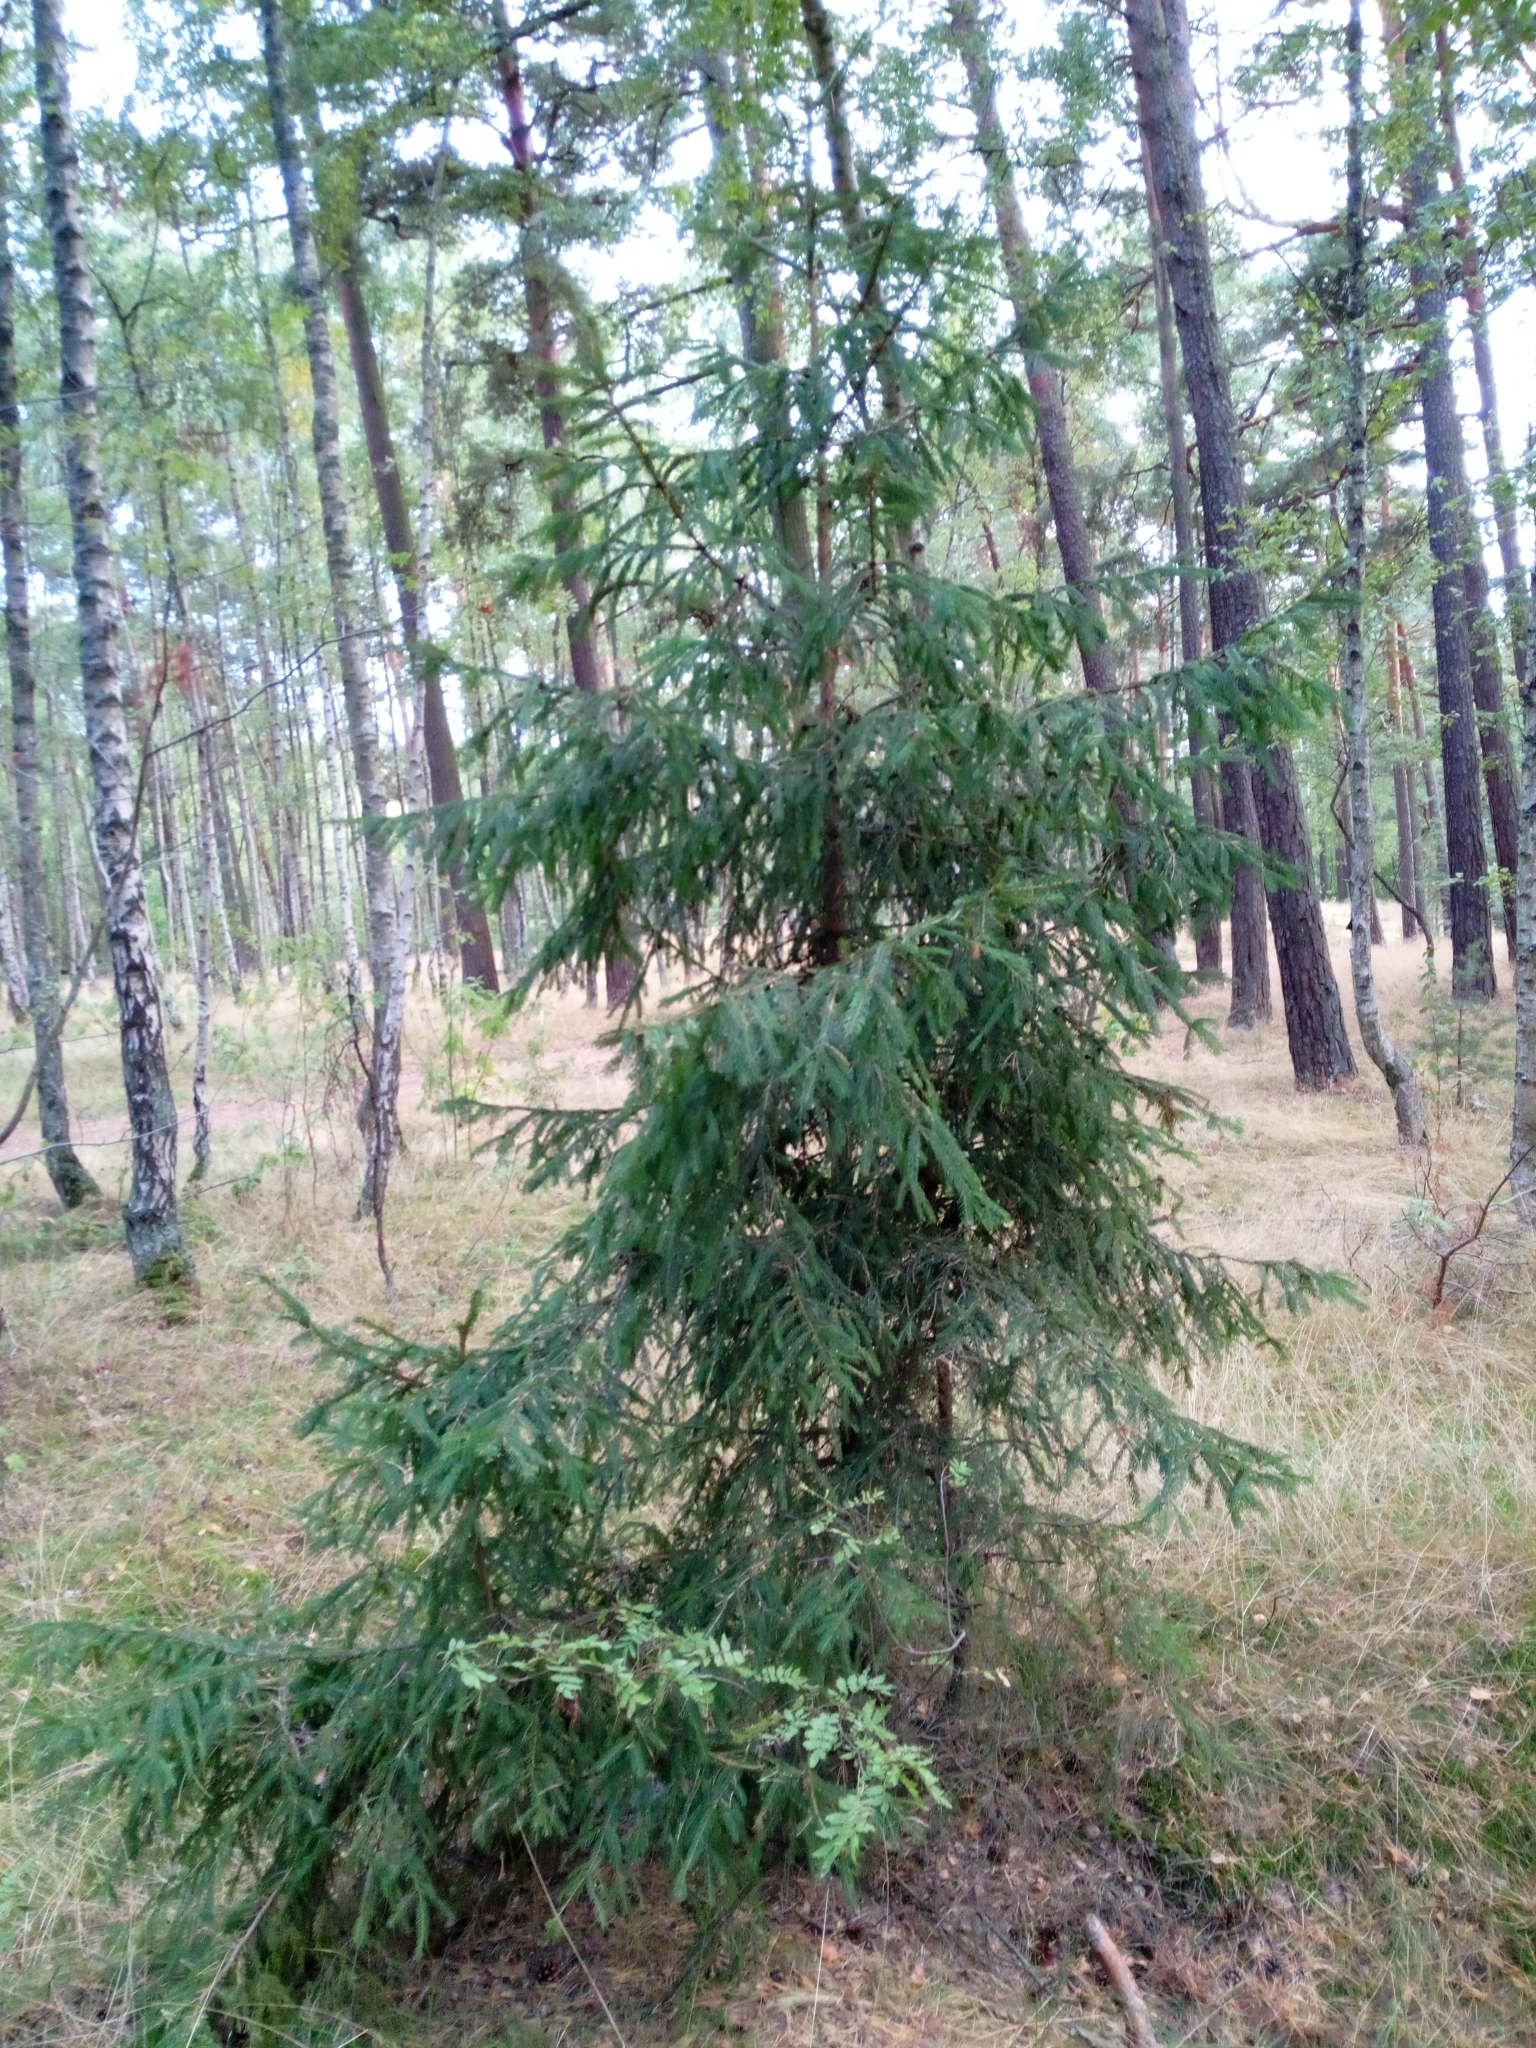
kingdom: Plantae
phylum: Tracheophyta
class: Pinopsida
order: Pinales
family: Pinaceae
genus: Picea
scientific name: Picea abies
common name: Norway spruce
